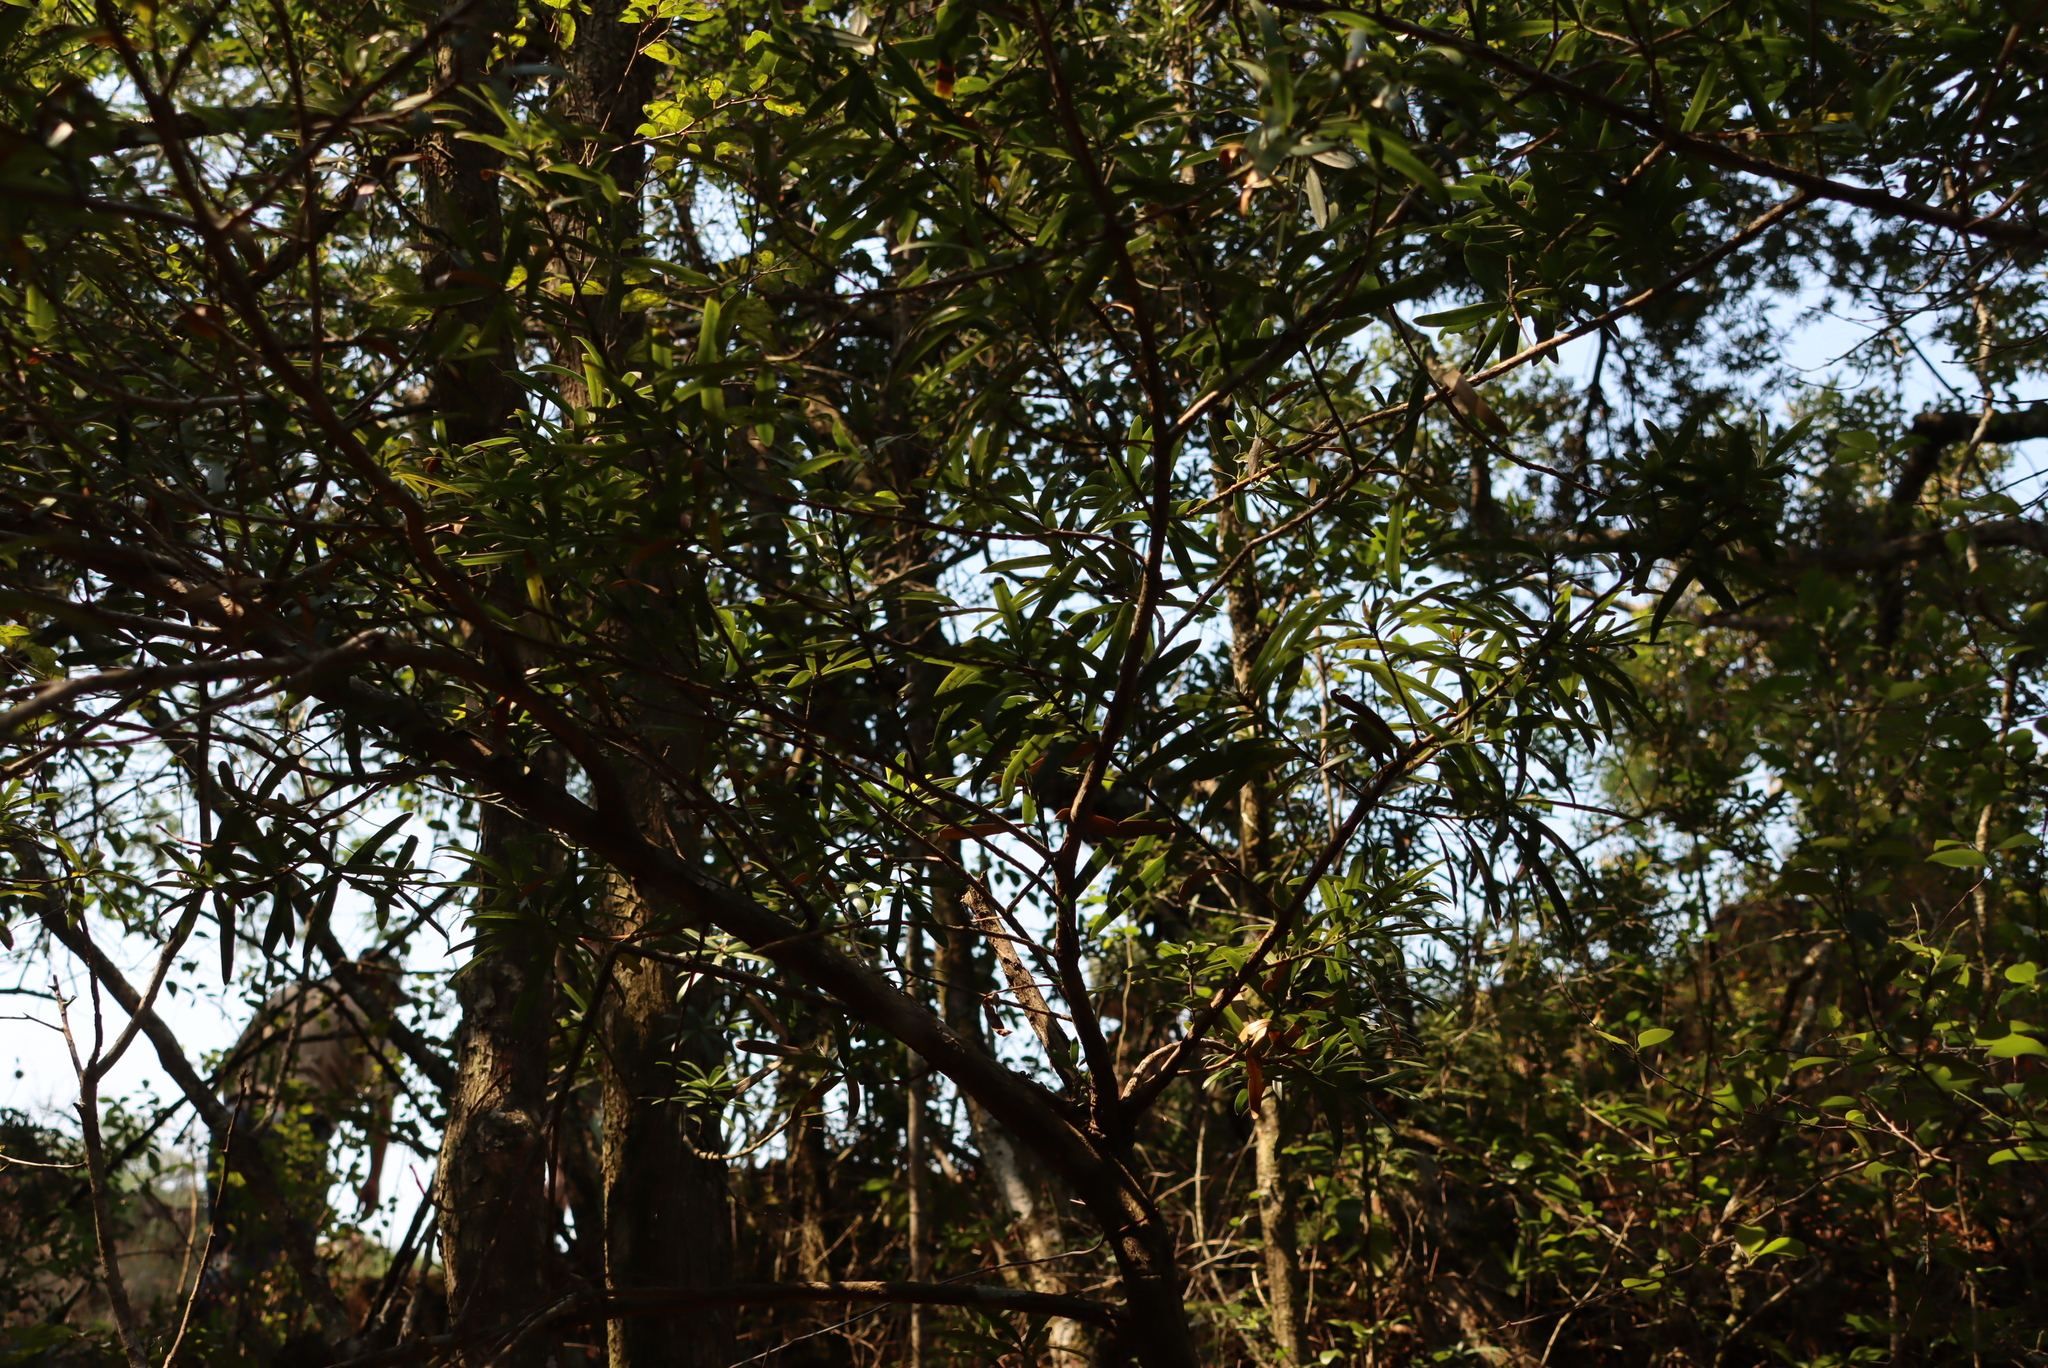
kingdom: Plantae
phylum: Tracheophyta
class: Pinopsida
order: Pinales
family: Podocarpaceae
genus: Podocarpus
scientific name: Podocarpus latifolius
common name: True yellowwood
